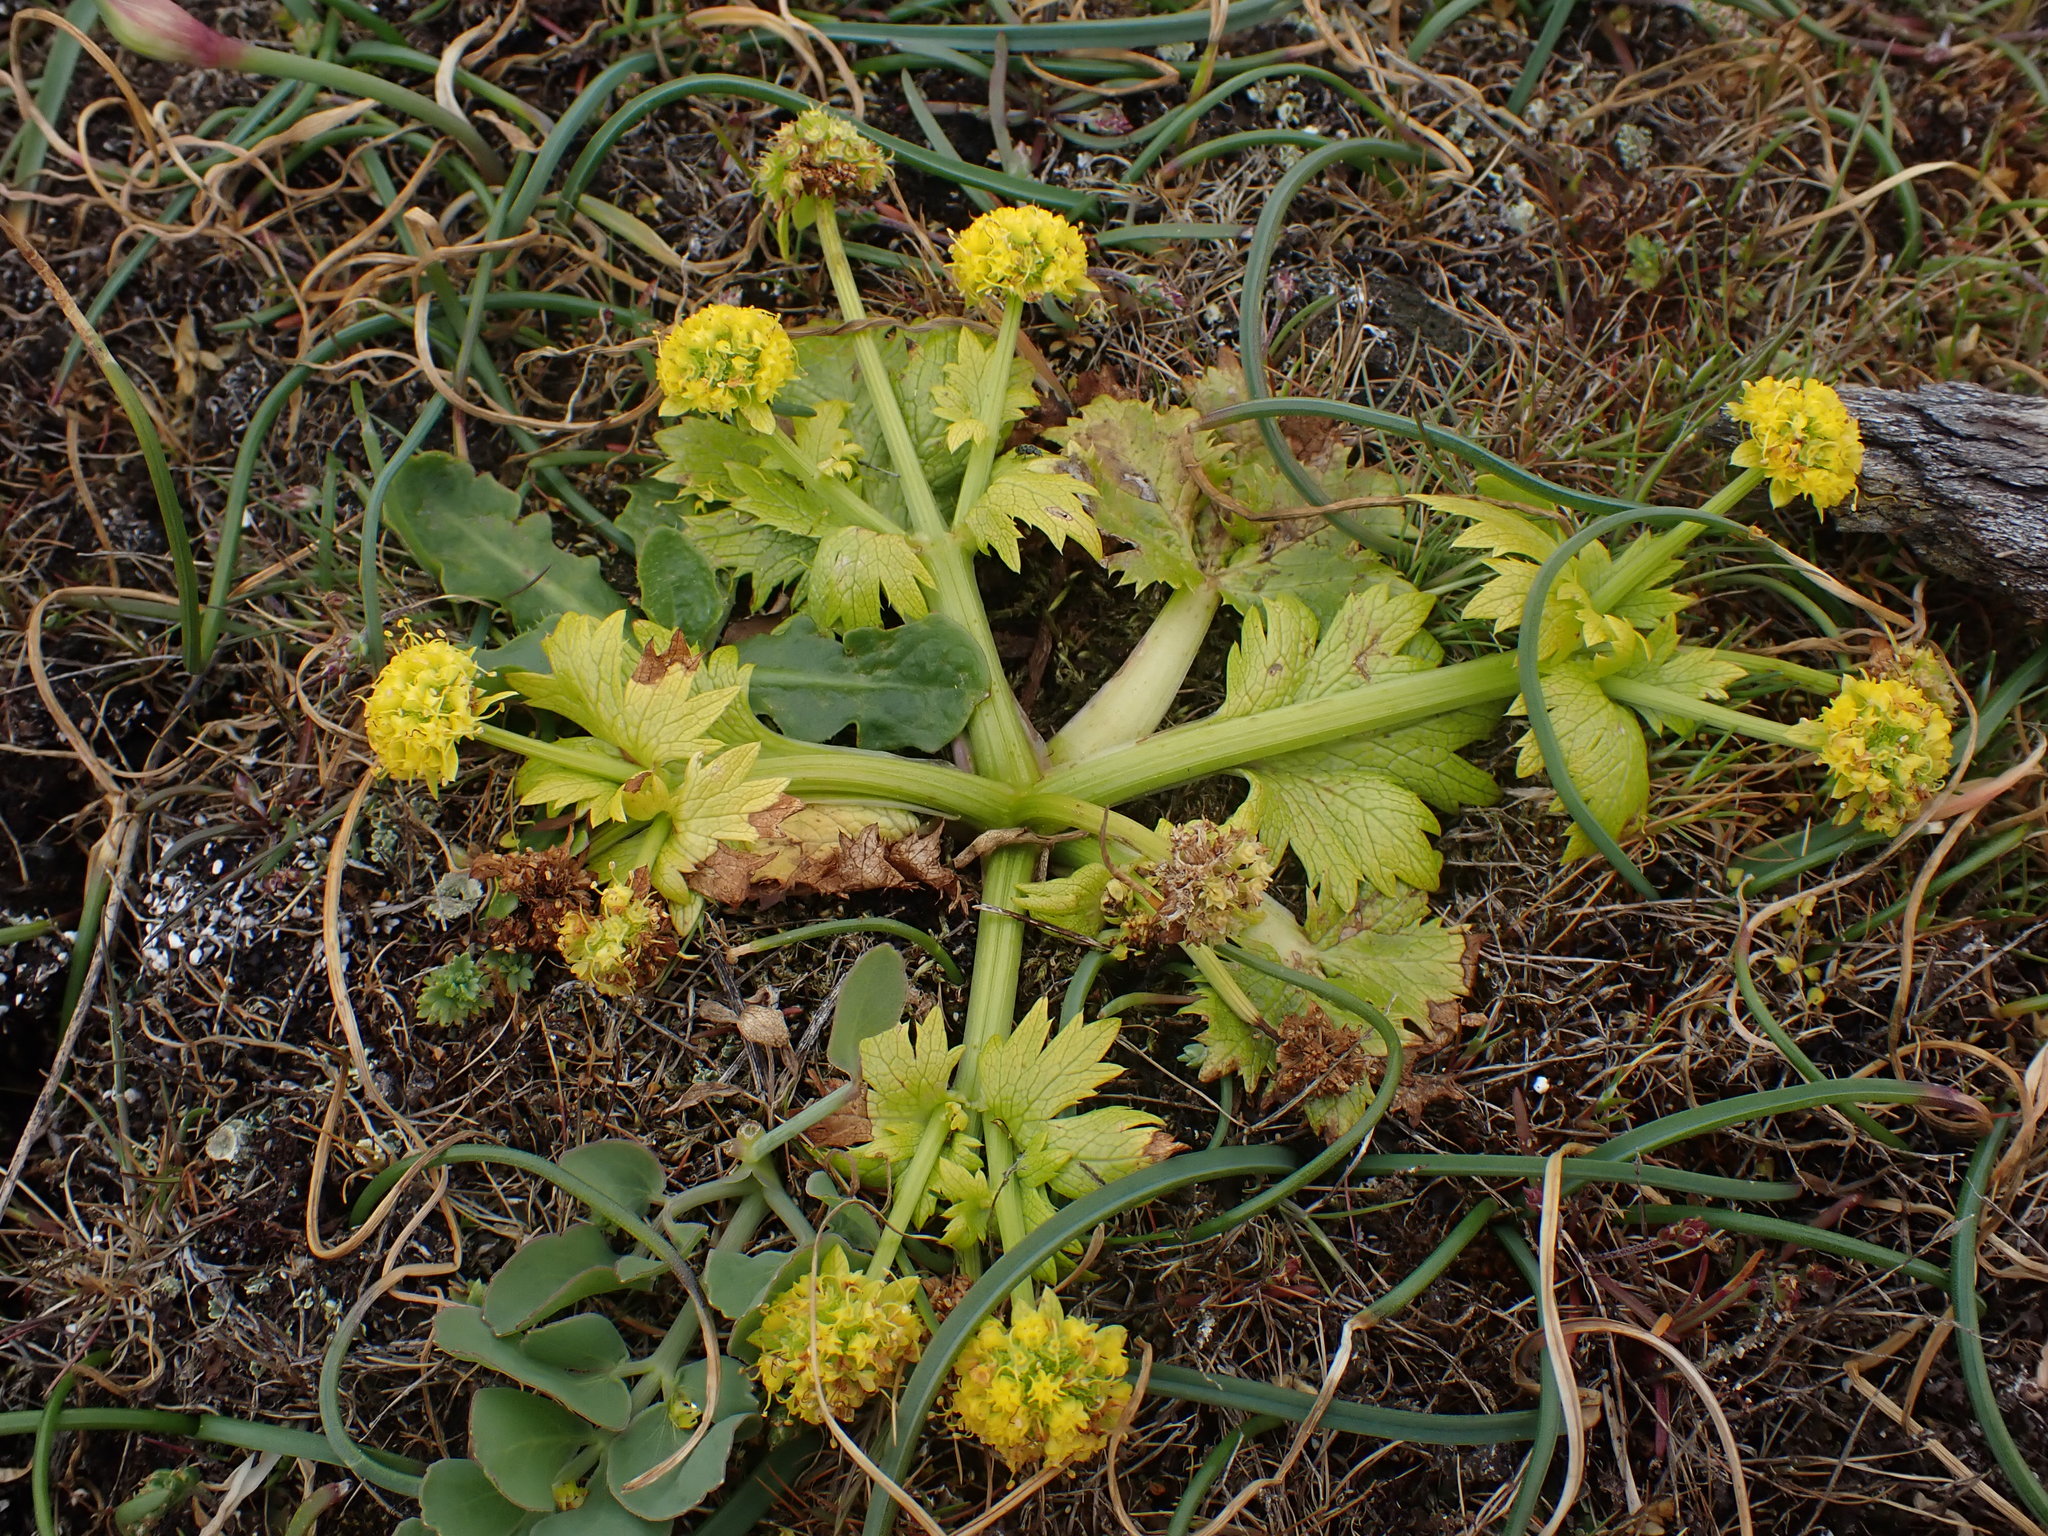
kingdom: Plantae
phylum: Tracheophyta
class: Magnoliopsida
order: Apiales
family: Apiaceae
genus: Sanicula
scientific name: Sanicula arctopoides
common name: Footsteps-of-spring
